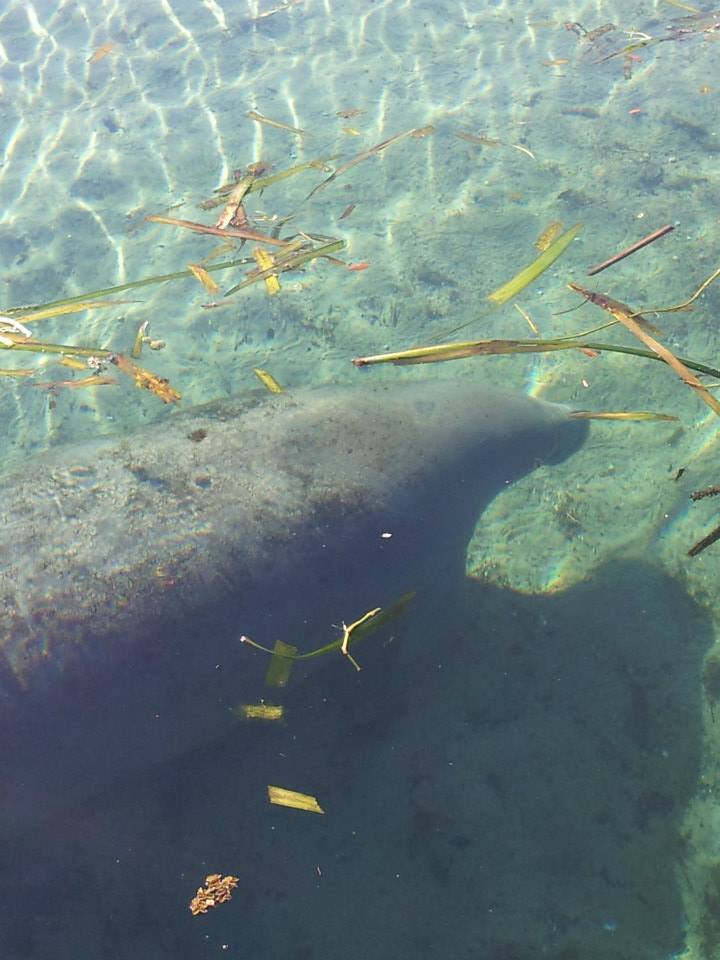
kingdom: Animalia
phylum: Chordata
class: Mammalia
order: Sirenia
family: Trichechidae
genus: Trichechus
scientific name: Trichechus manatus
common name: West indian manatee
